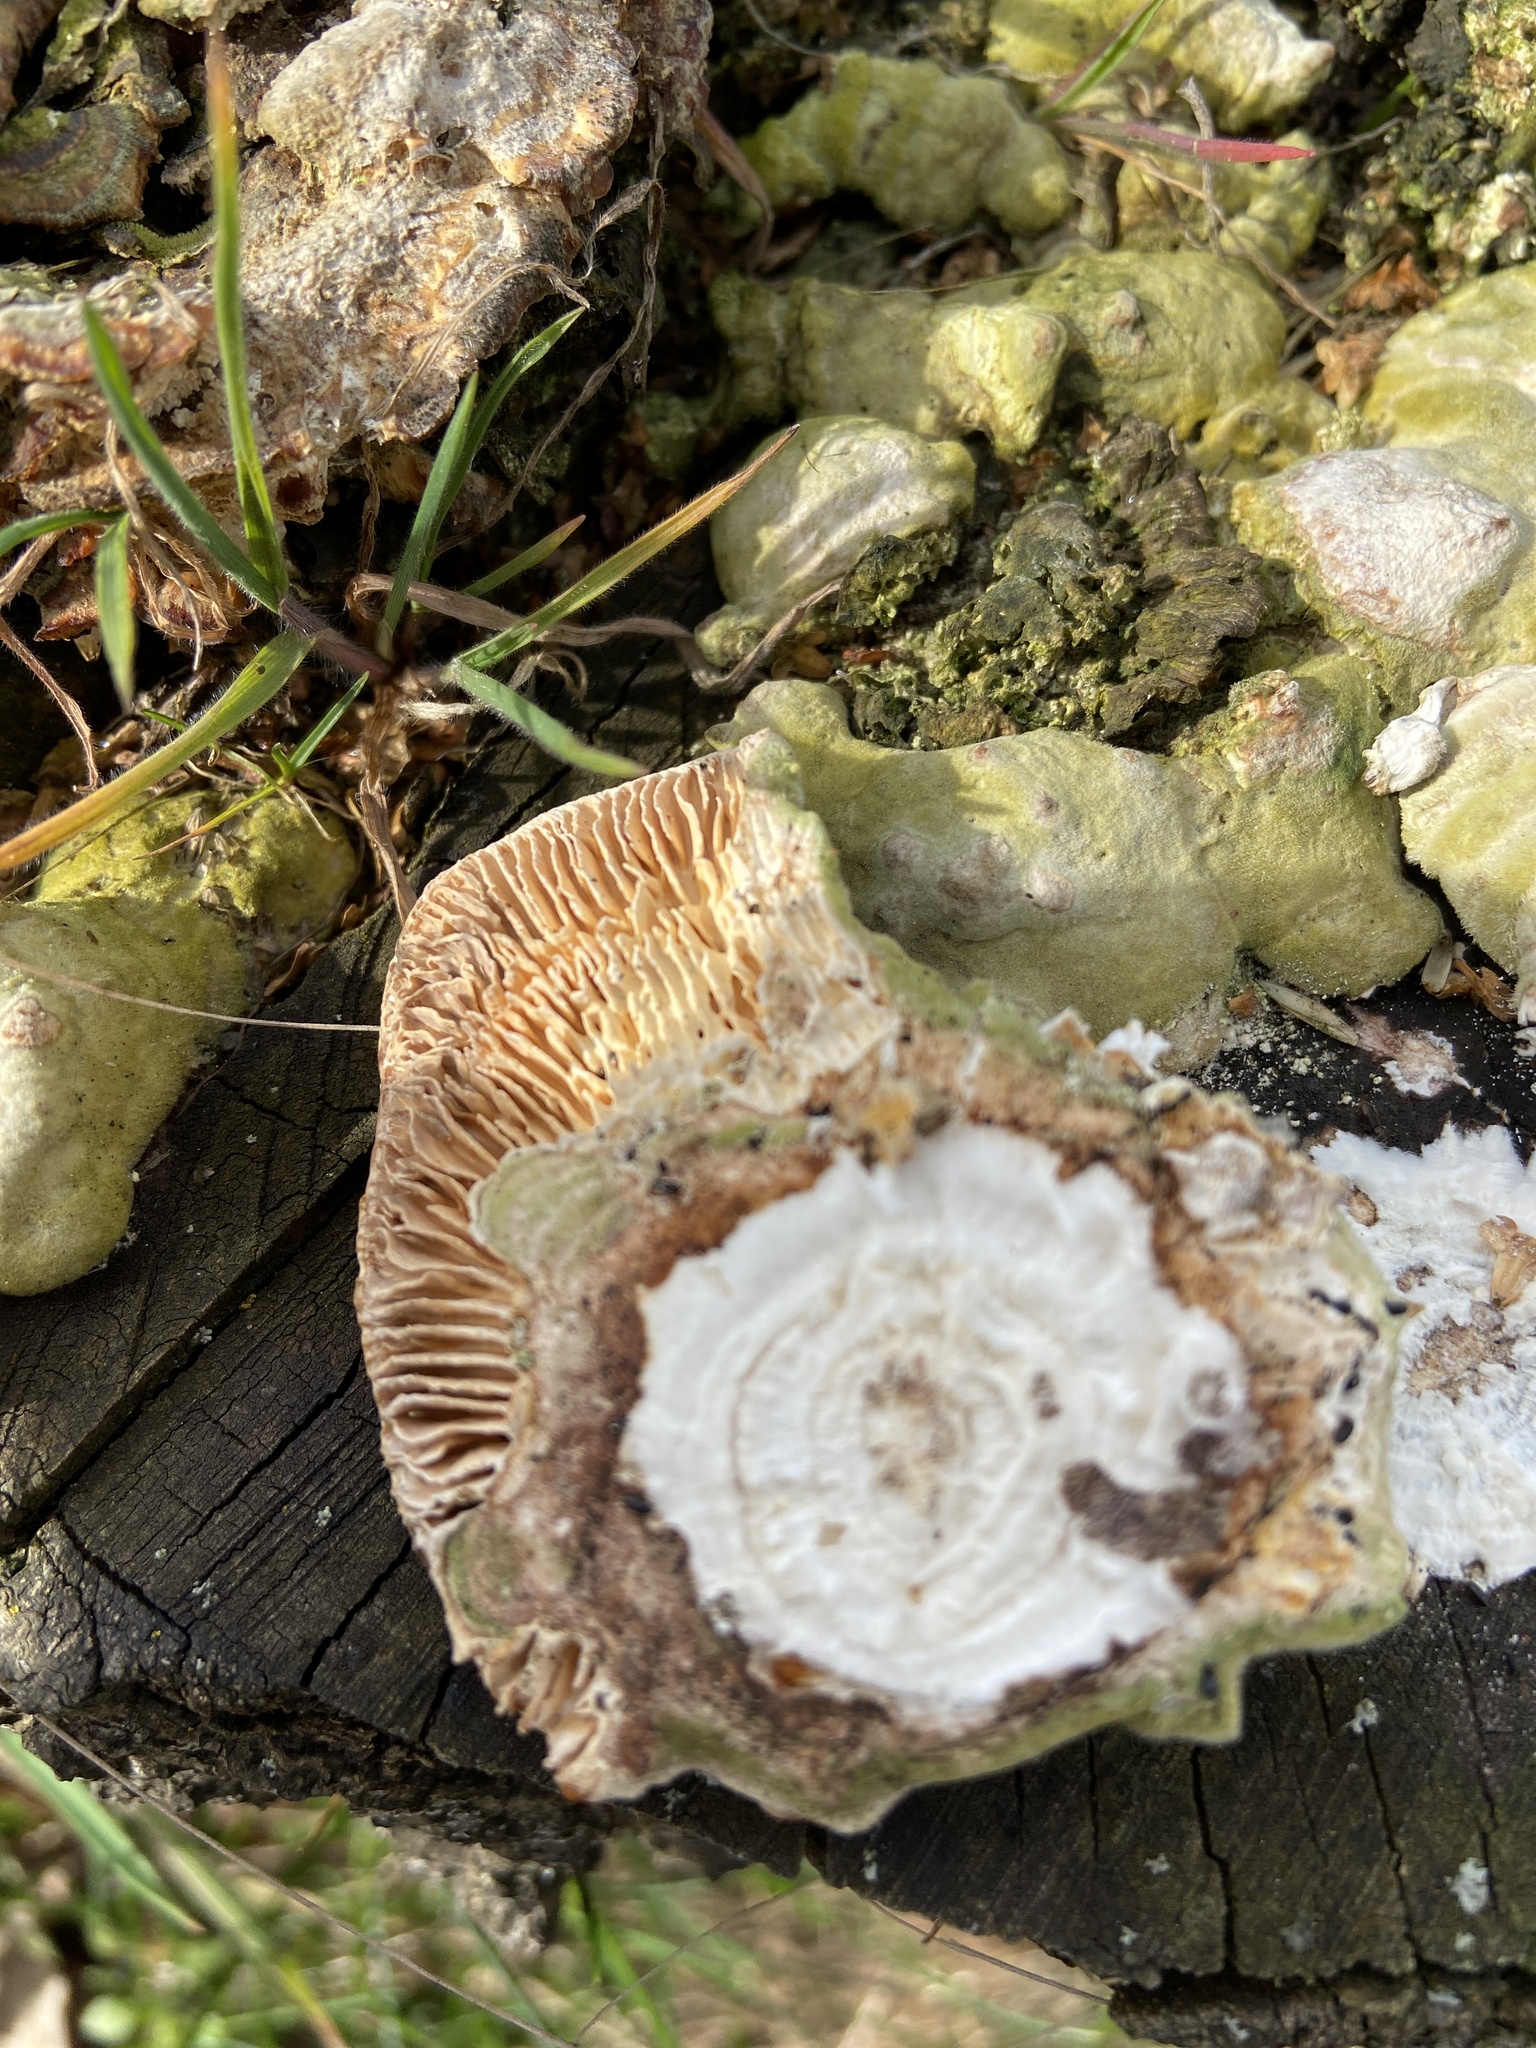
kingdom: Fungi
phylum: Basidiomycota
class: Agaricomycetes
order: Polyporales
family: Polyporaceae
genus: Lenzites
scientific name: Lenzites betulinus
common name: Birch mazegill
